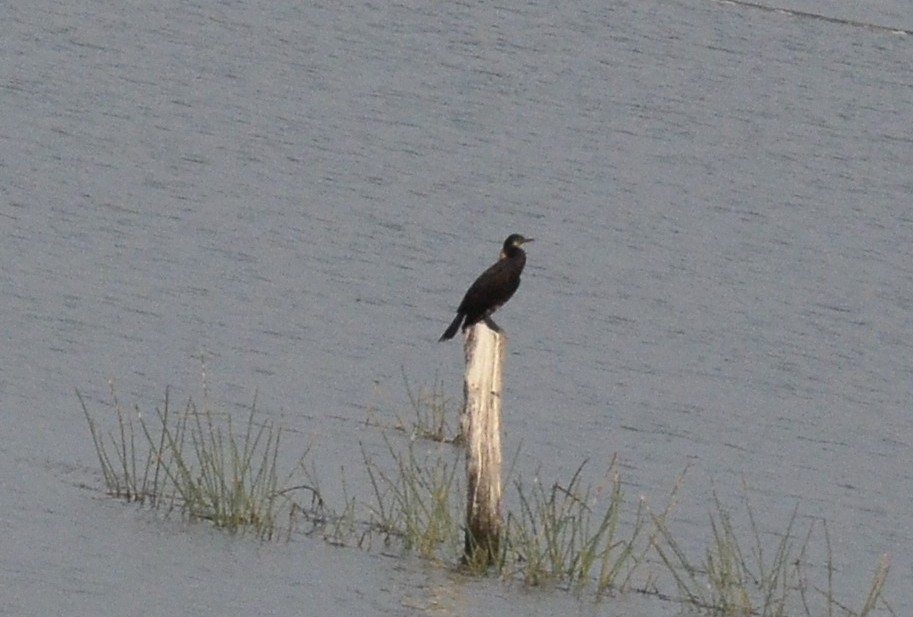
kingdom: Animalia
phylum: Chordata
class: Aves
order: Suliformes
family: Phalacrocoracidae
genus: Microcarbo
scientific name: Microcarbo niger
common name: Little cormorant
